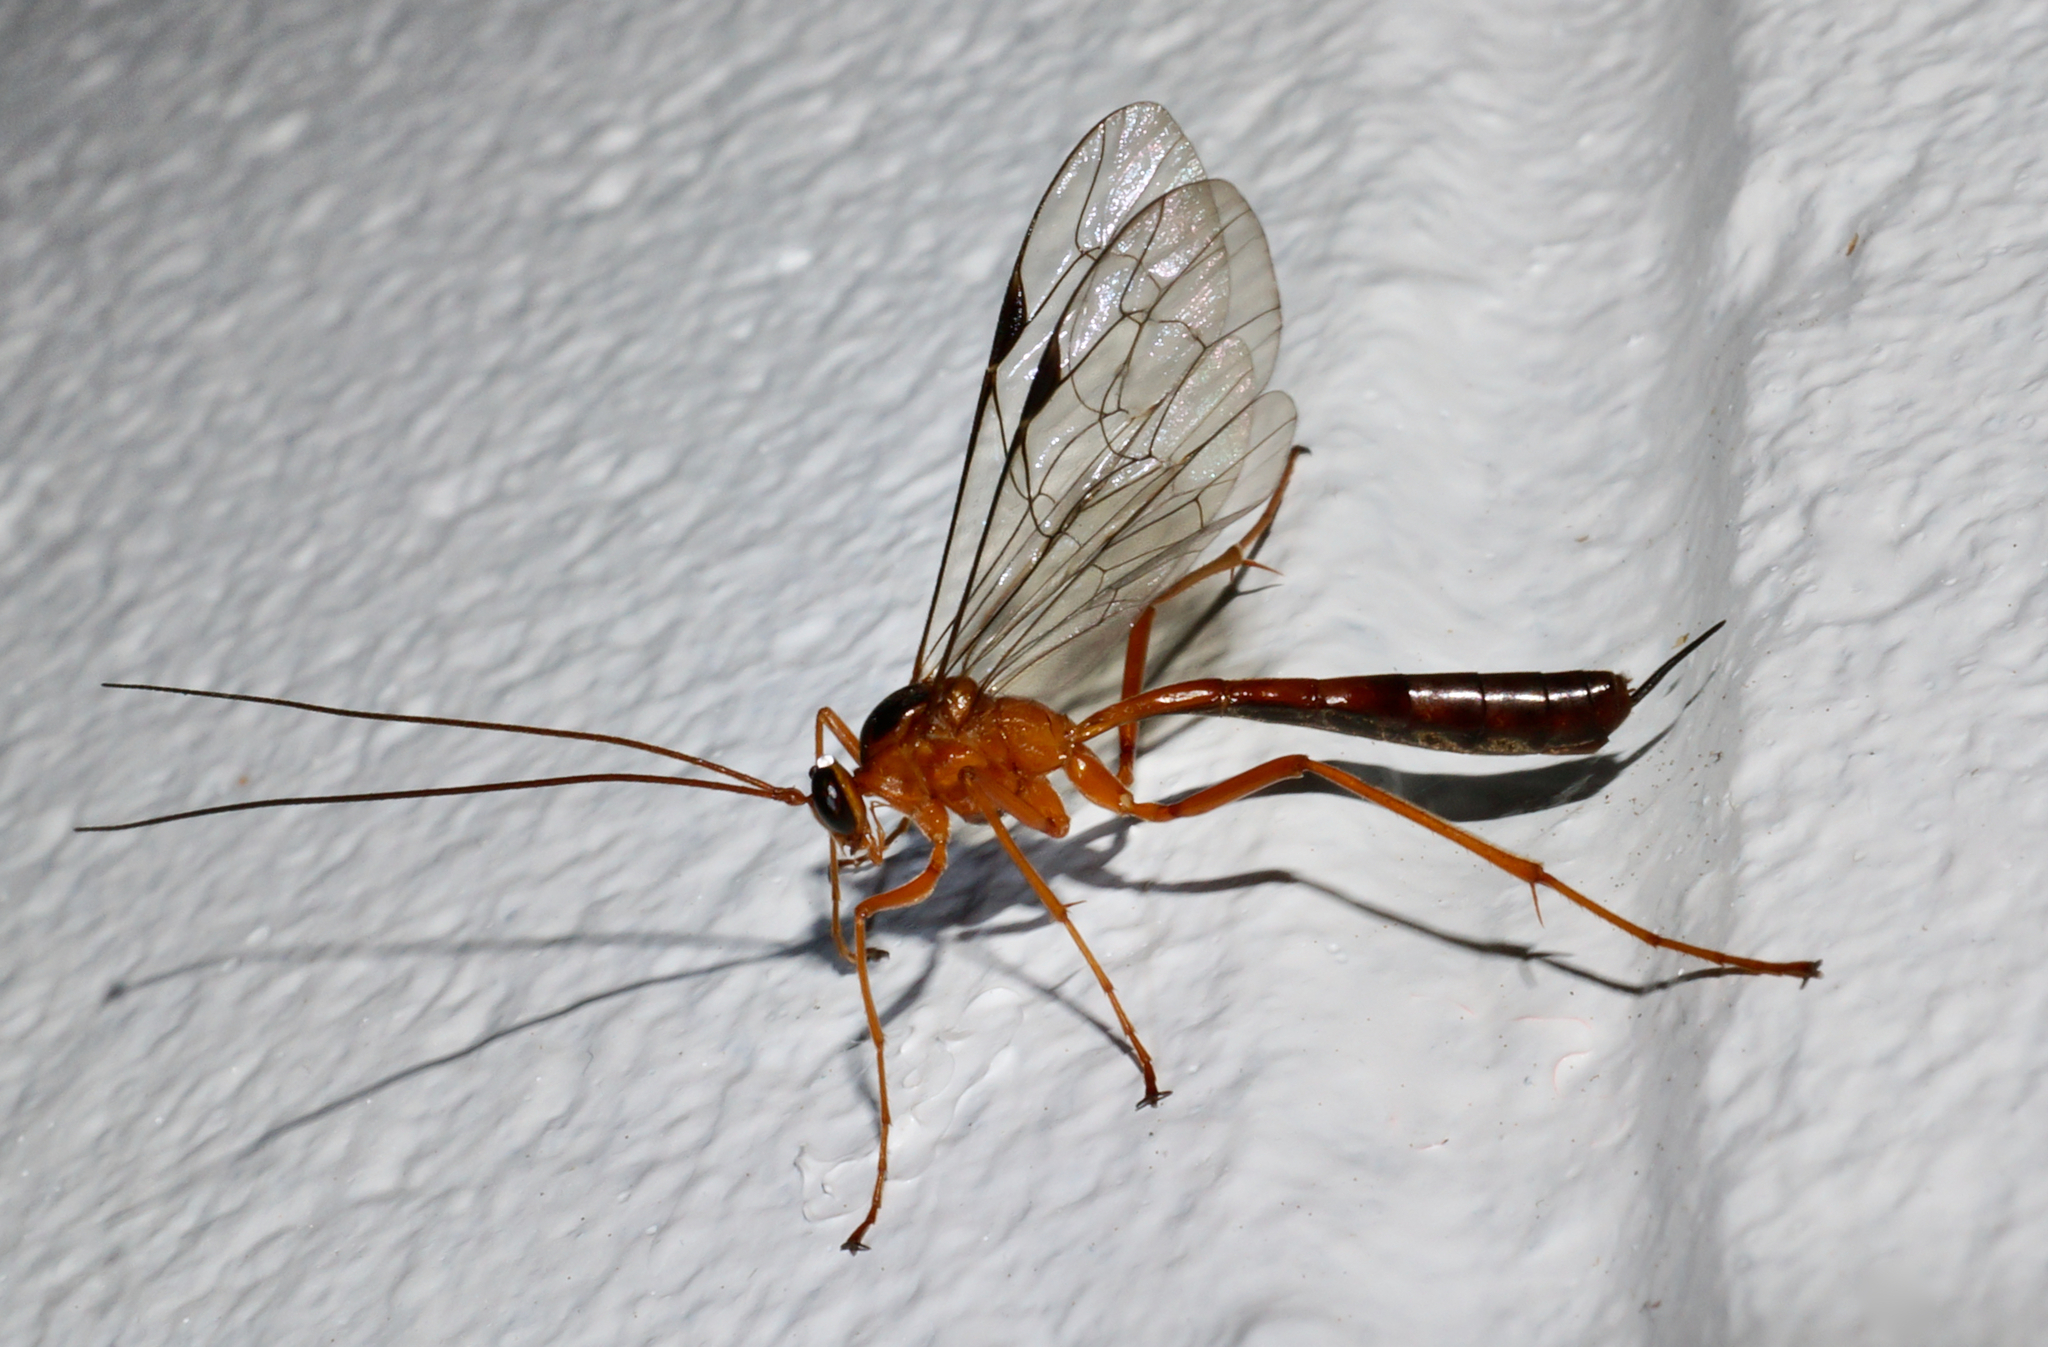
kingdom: Animalia
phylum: Arthropoda
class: Insecta
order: Hymenoptera
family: Ichneumonidae
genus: Netelia
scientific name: Netelia ephippiata
